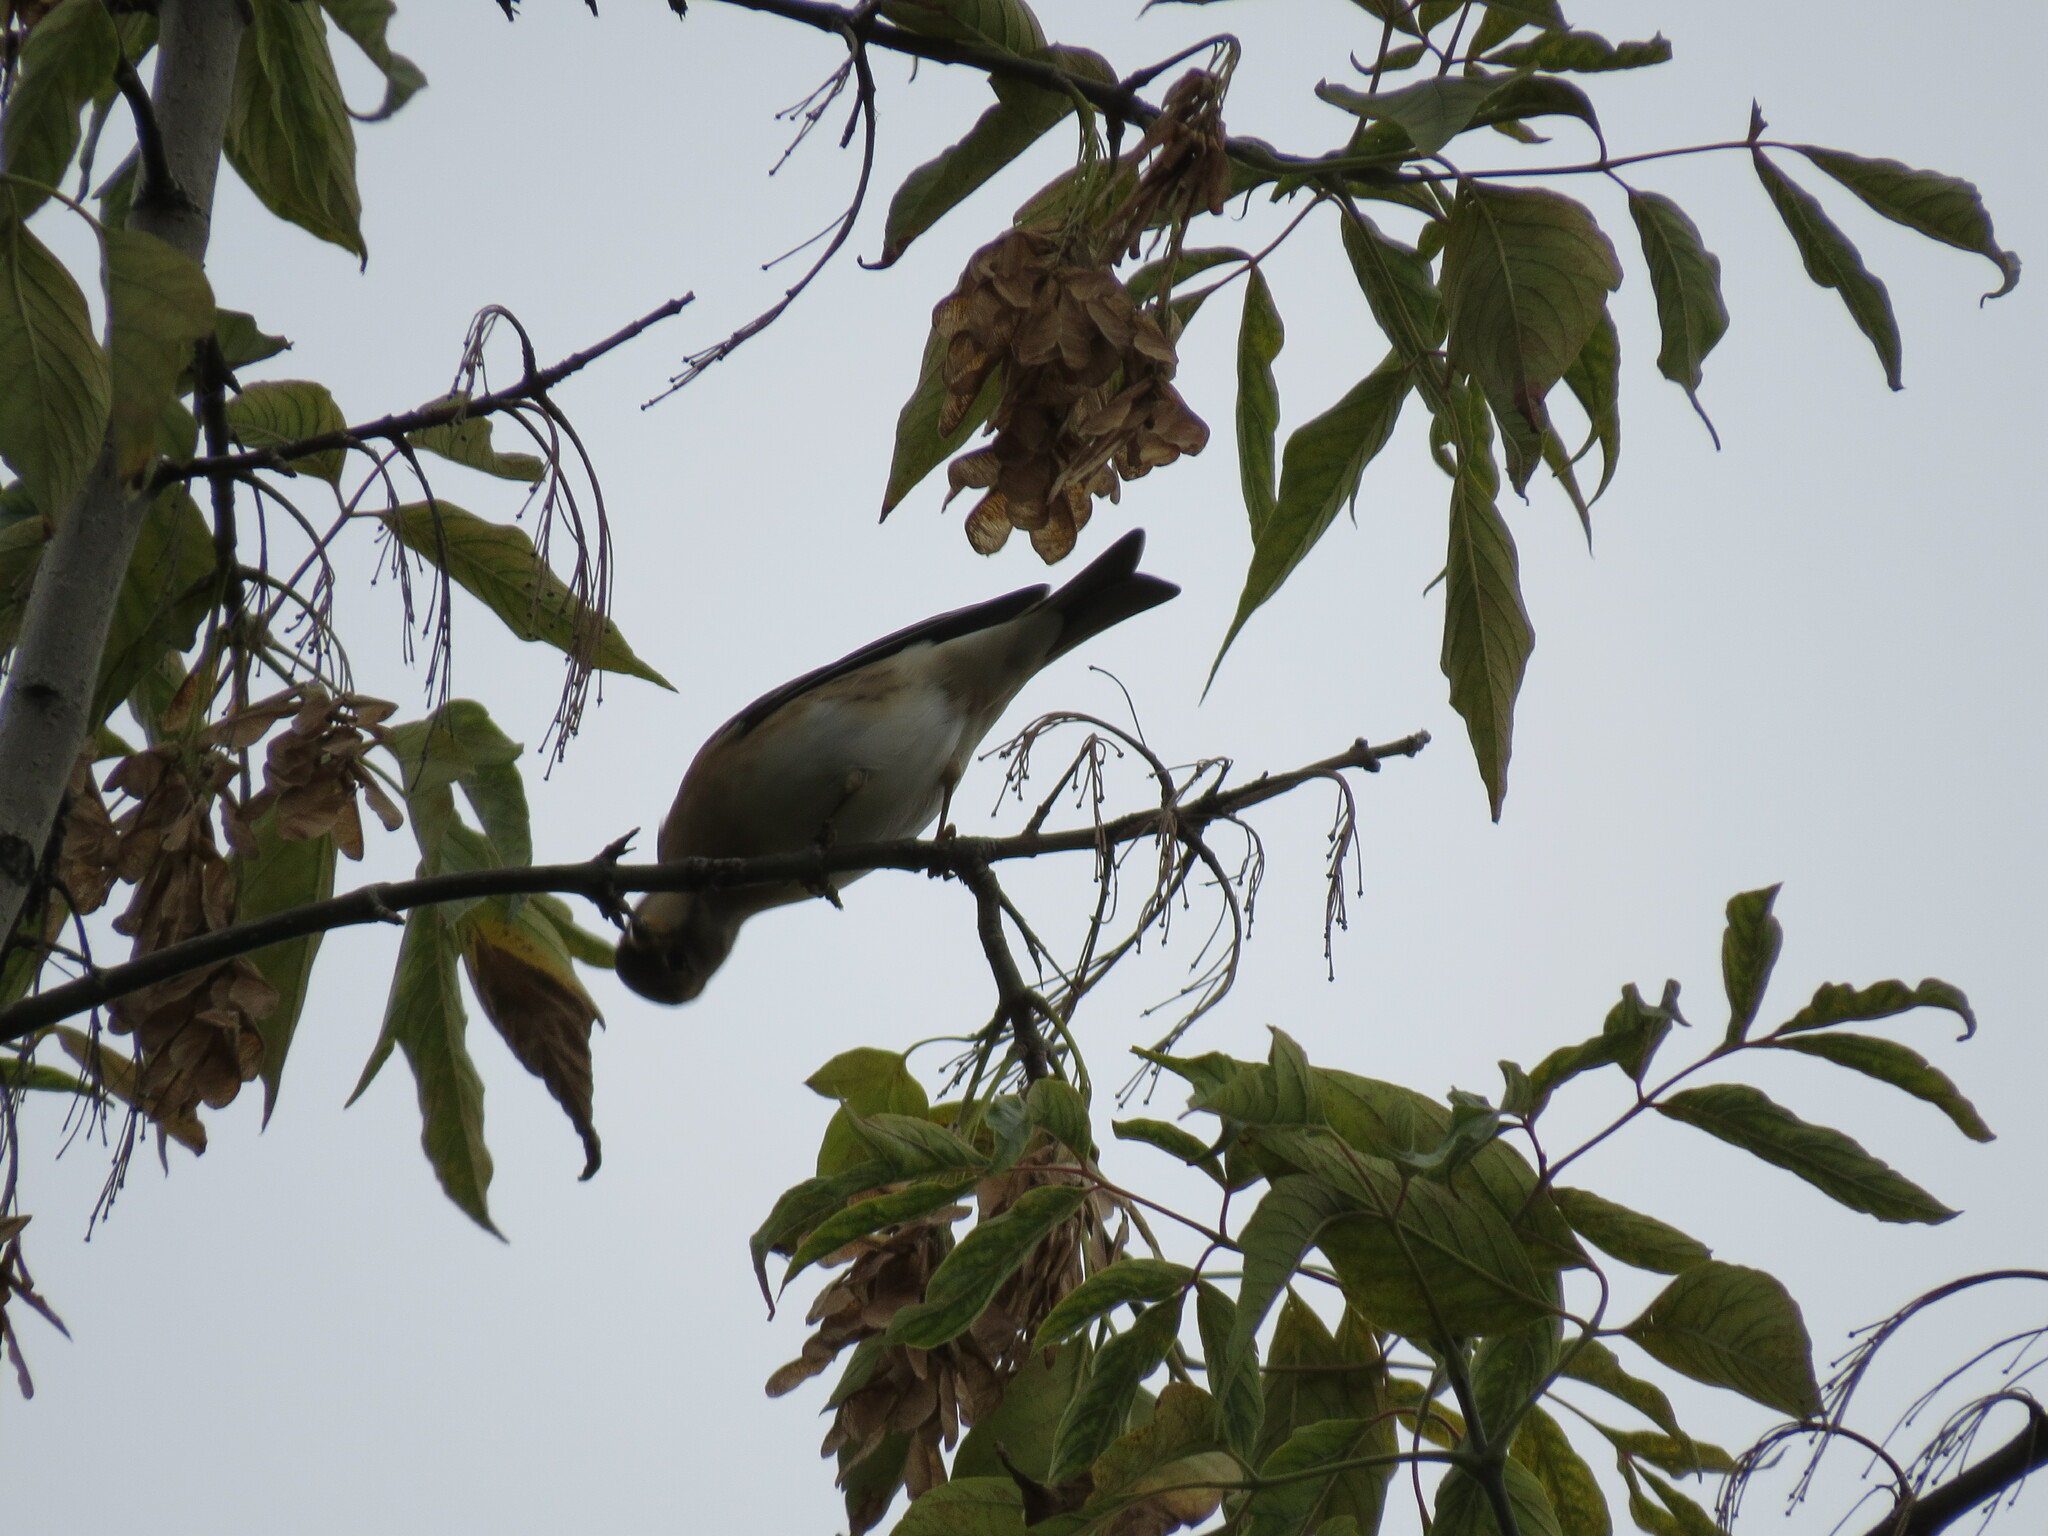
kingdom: Animalia
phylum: Chordata
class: Aves
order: Passeriformes
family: Fringillidae
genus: Fringilla
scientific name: Fringilla montifringilla
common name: Brambling
